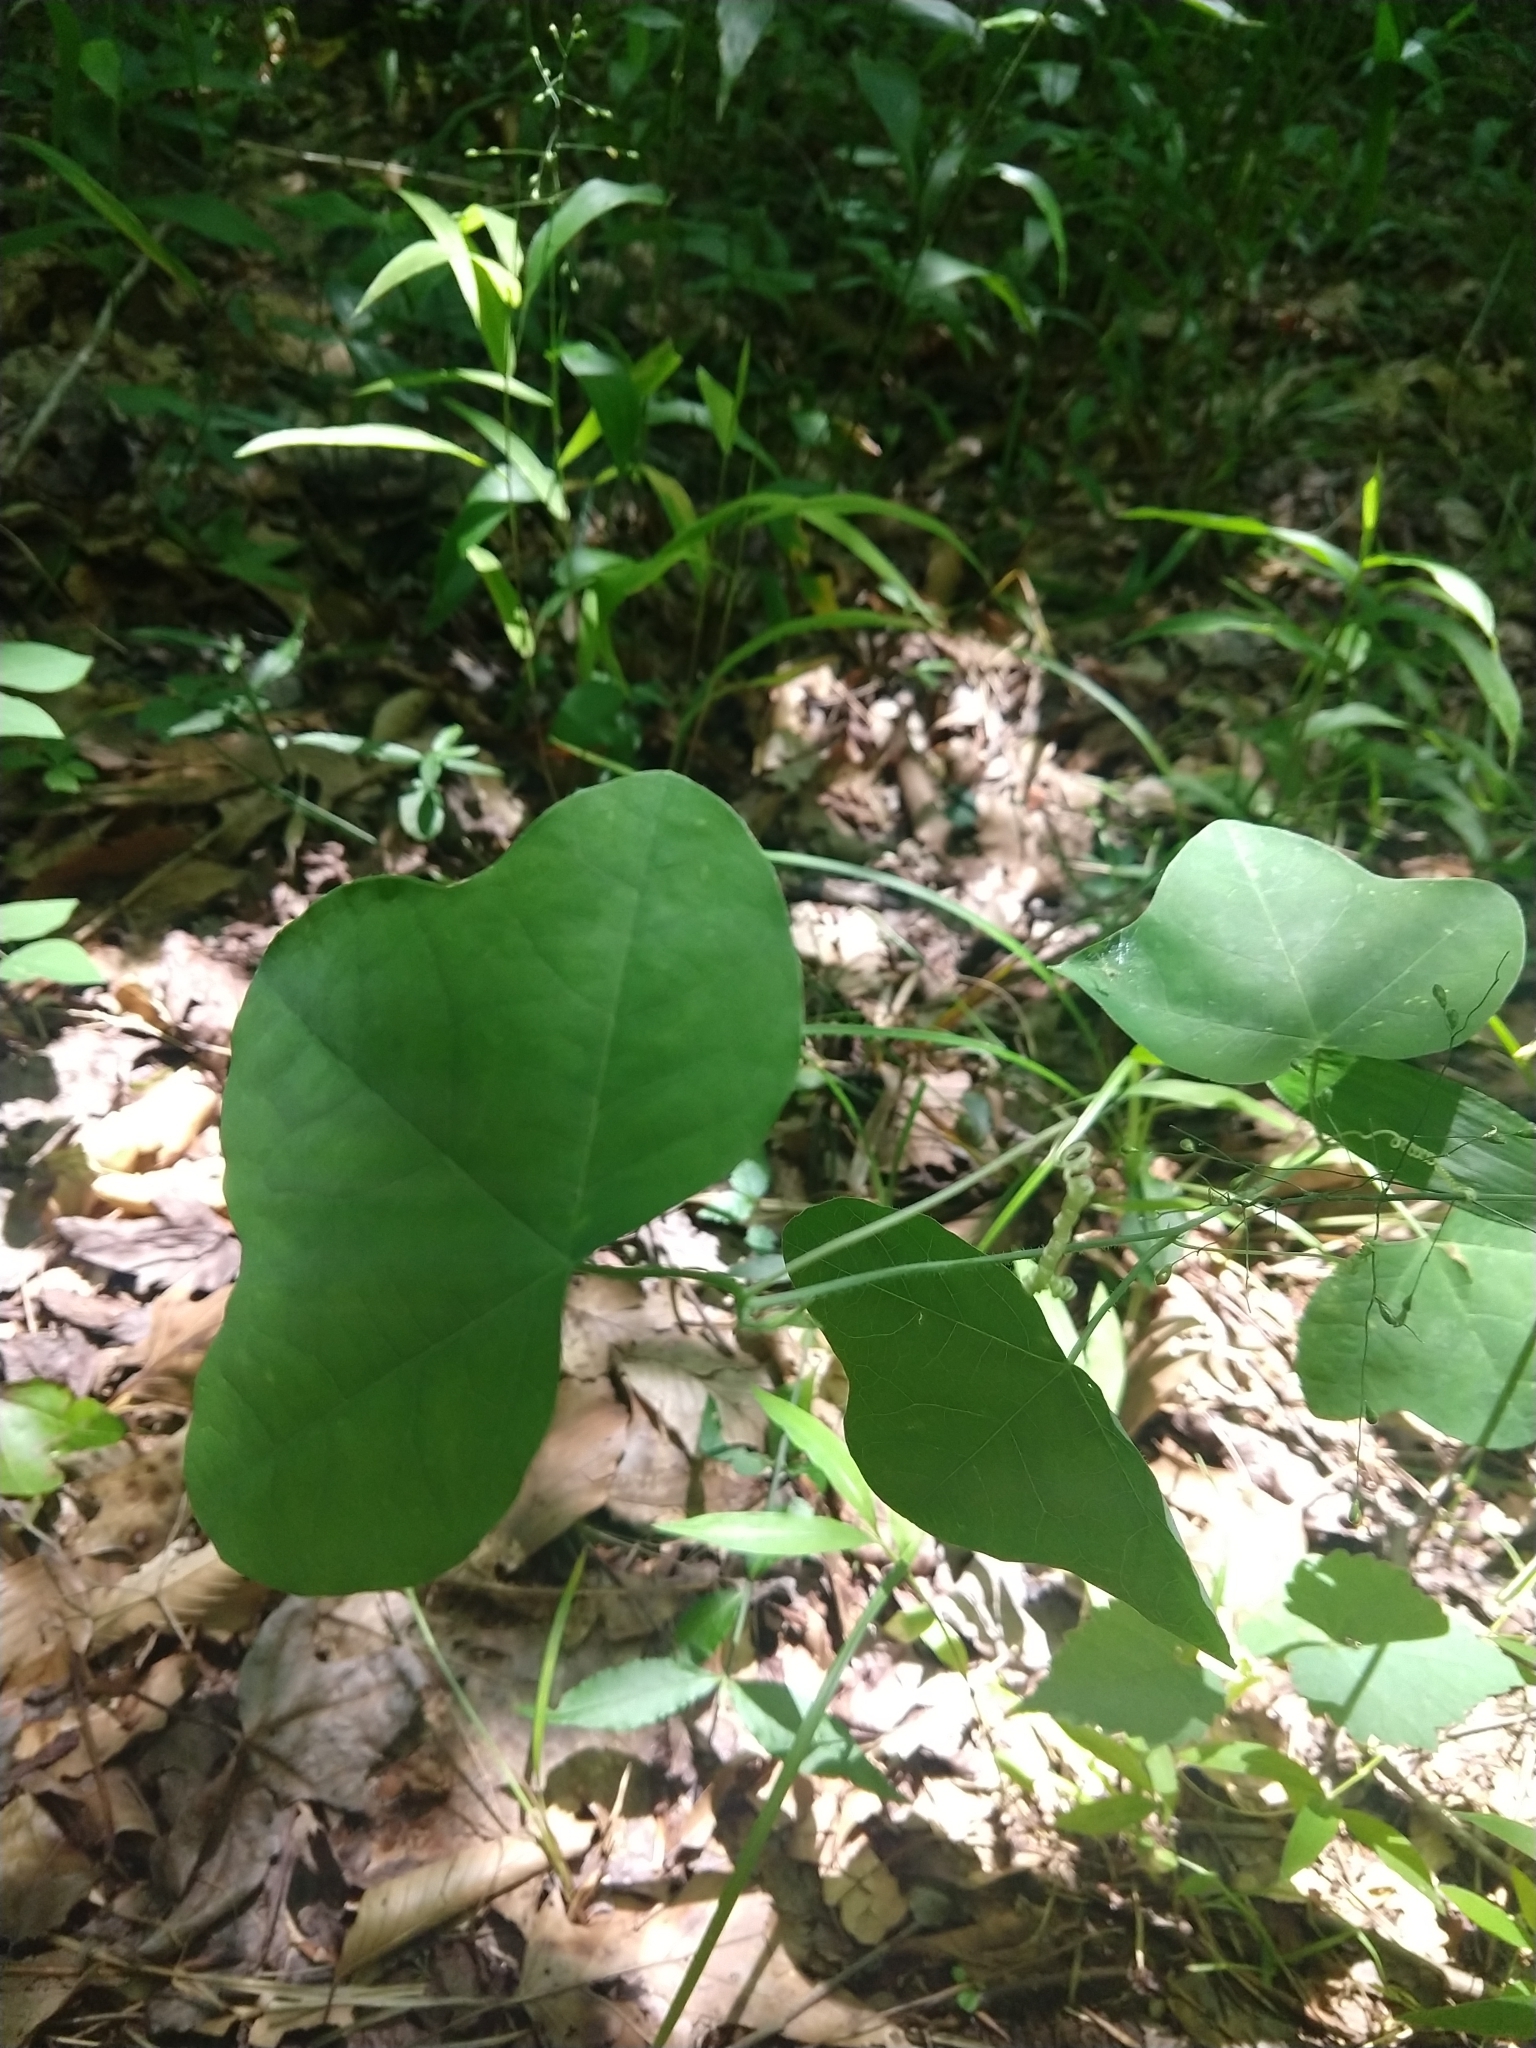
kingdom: Plantae
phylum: Tracheophyta
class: Magnoliopsida
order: Malpighiales
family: Passifloraceae
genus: Passiflora
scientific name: Passiflora lutea
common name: Yellow passionflower
